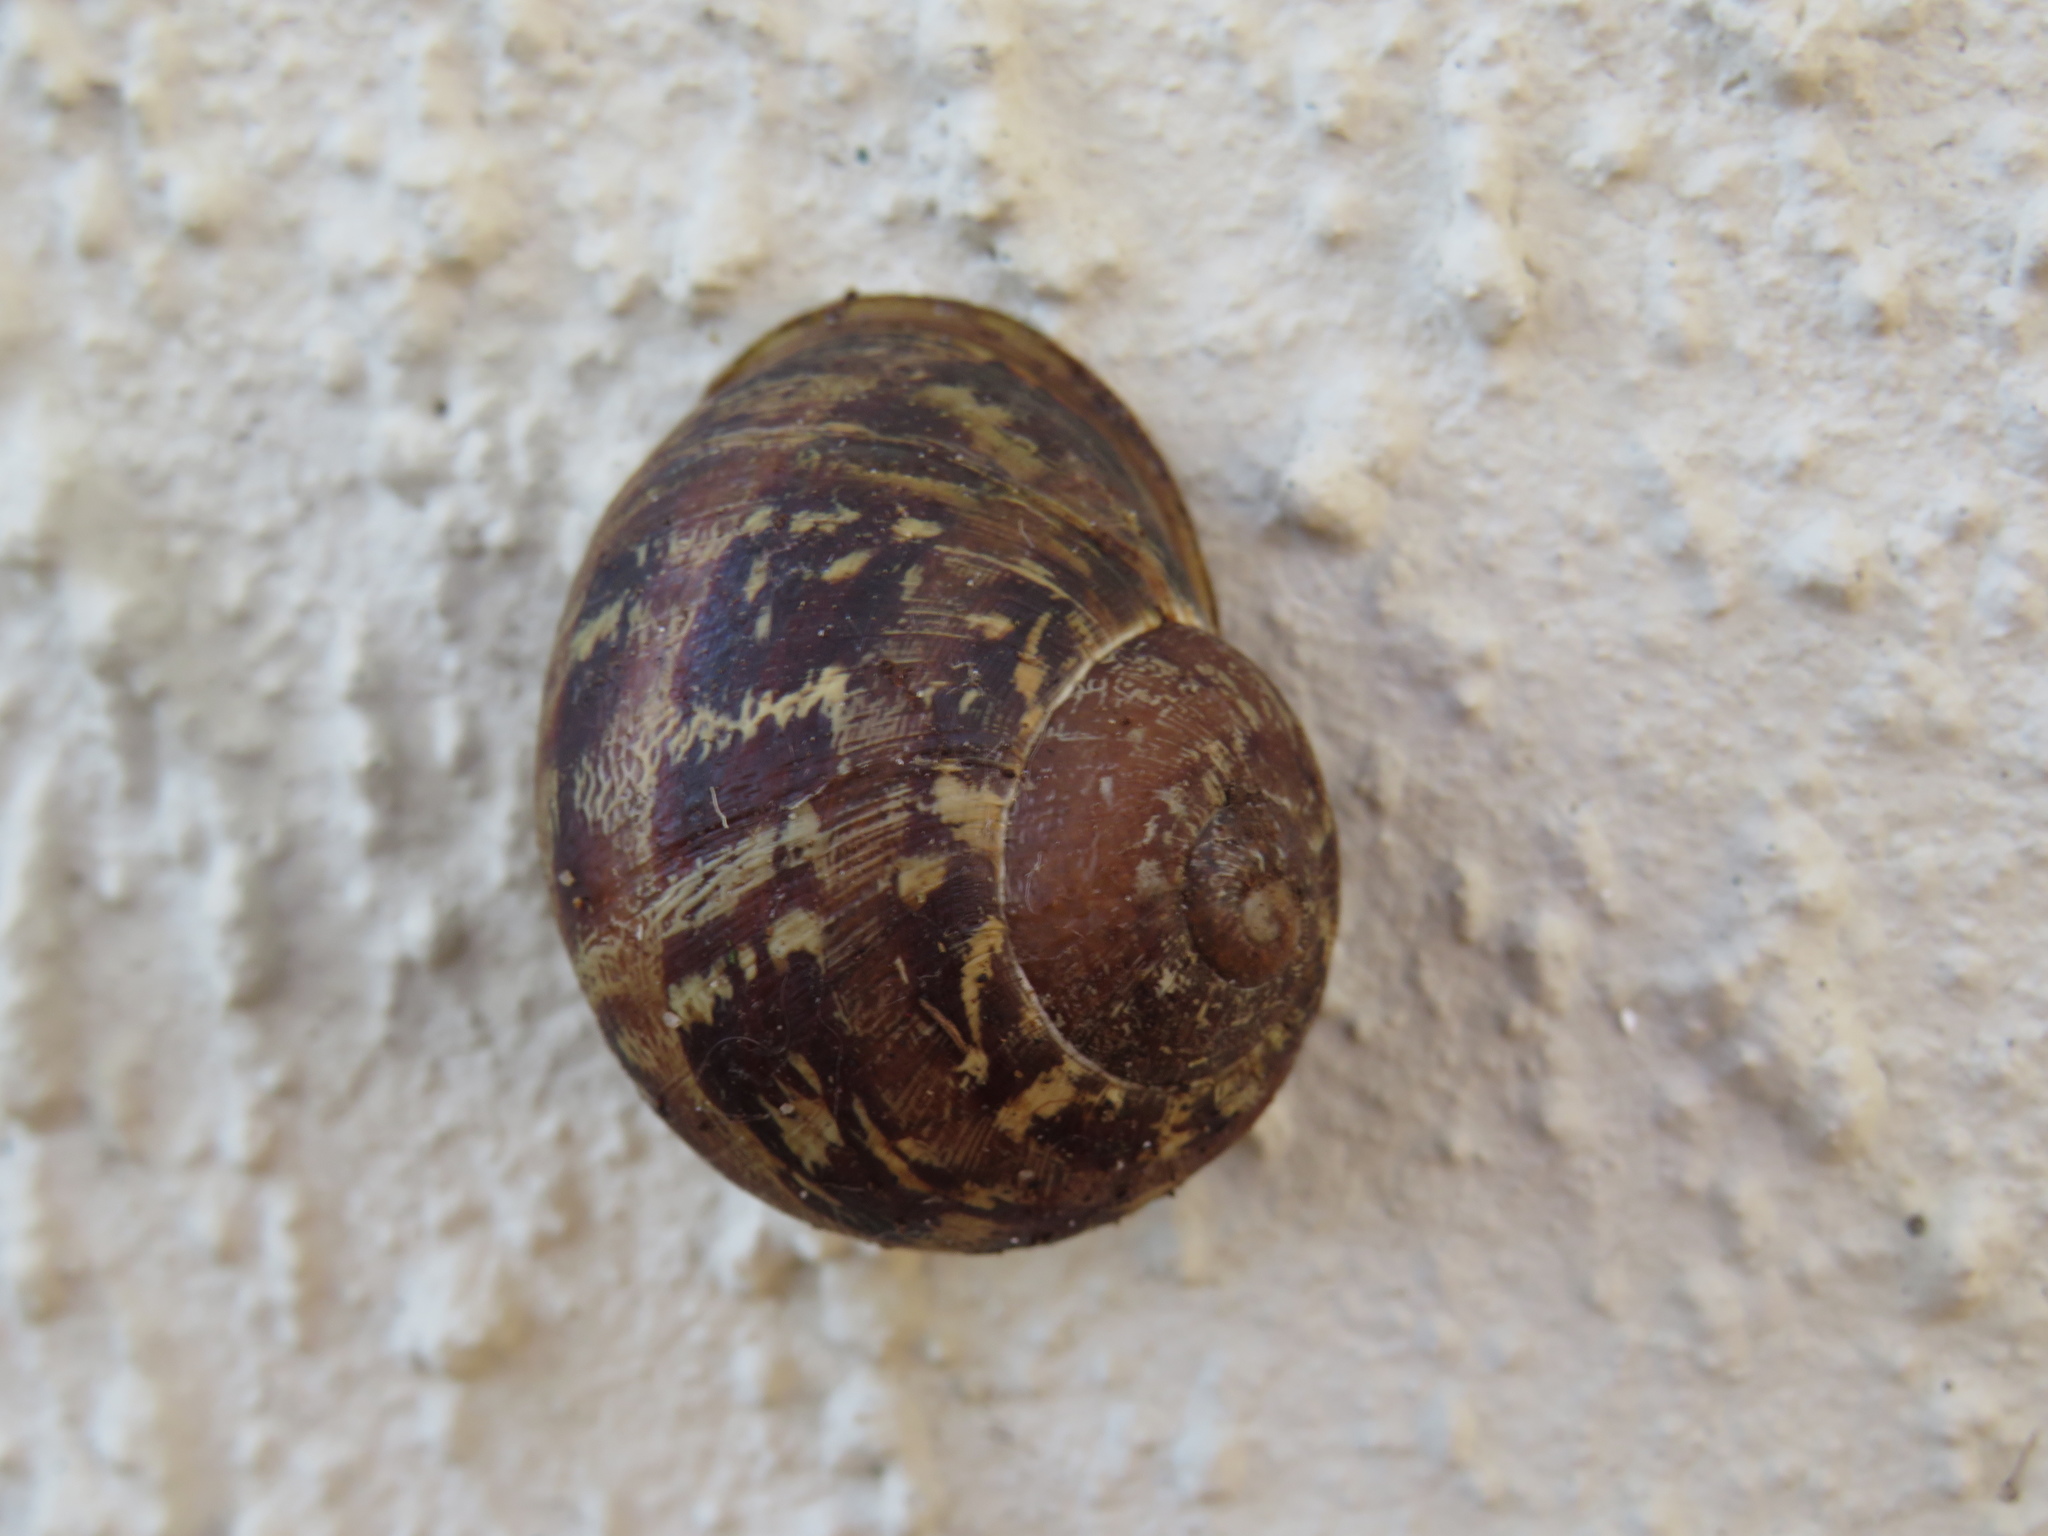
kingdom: Animalia
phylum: Mollusca
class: Gastropoda
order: Stylommatophora
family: Helicidae
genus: Cornu
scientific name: Cornu aspersum
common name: Brown garden snail
